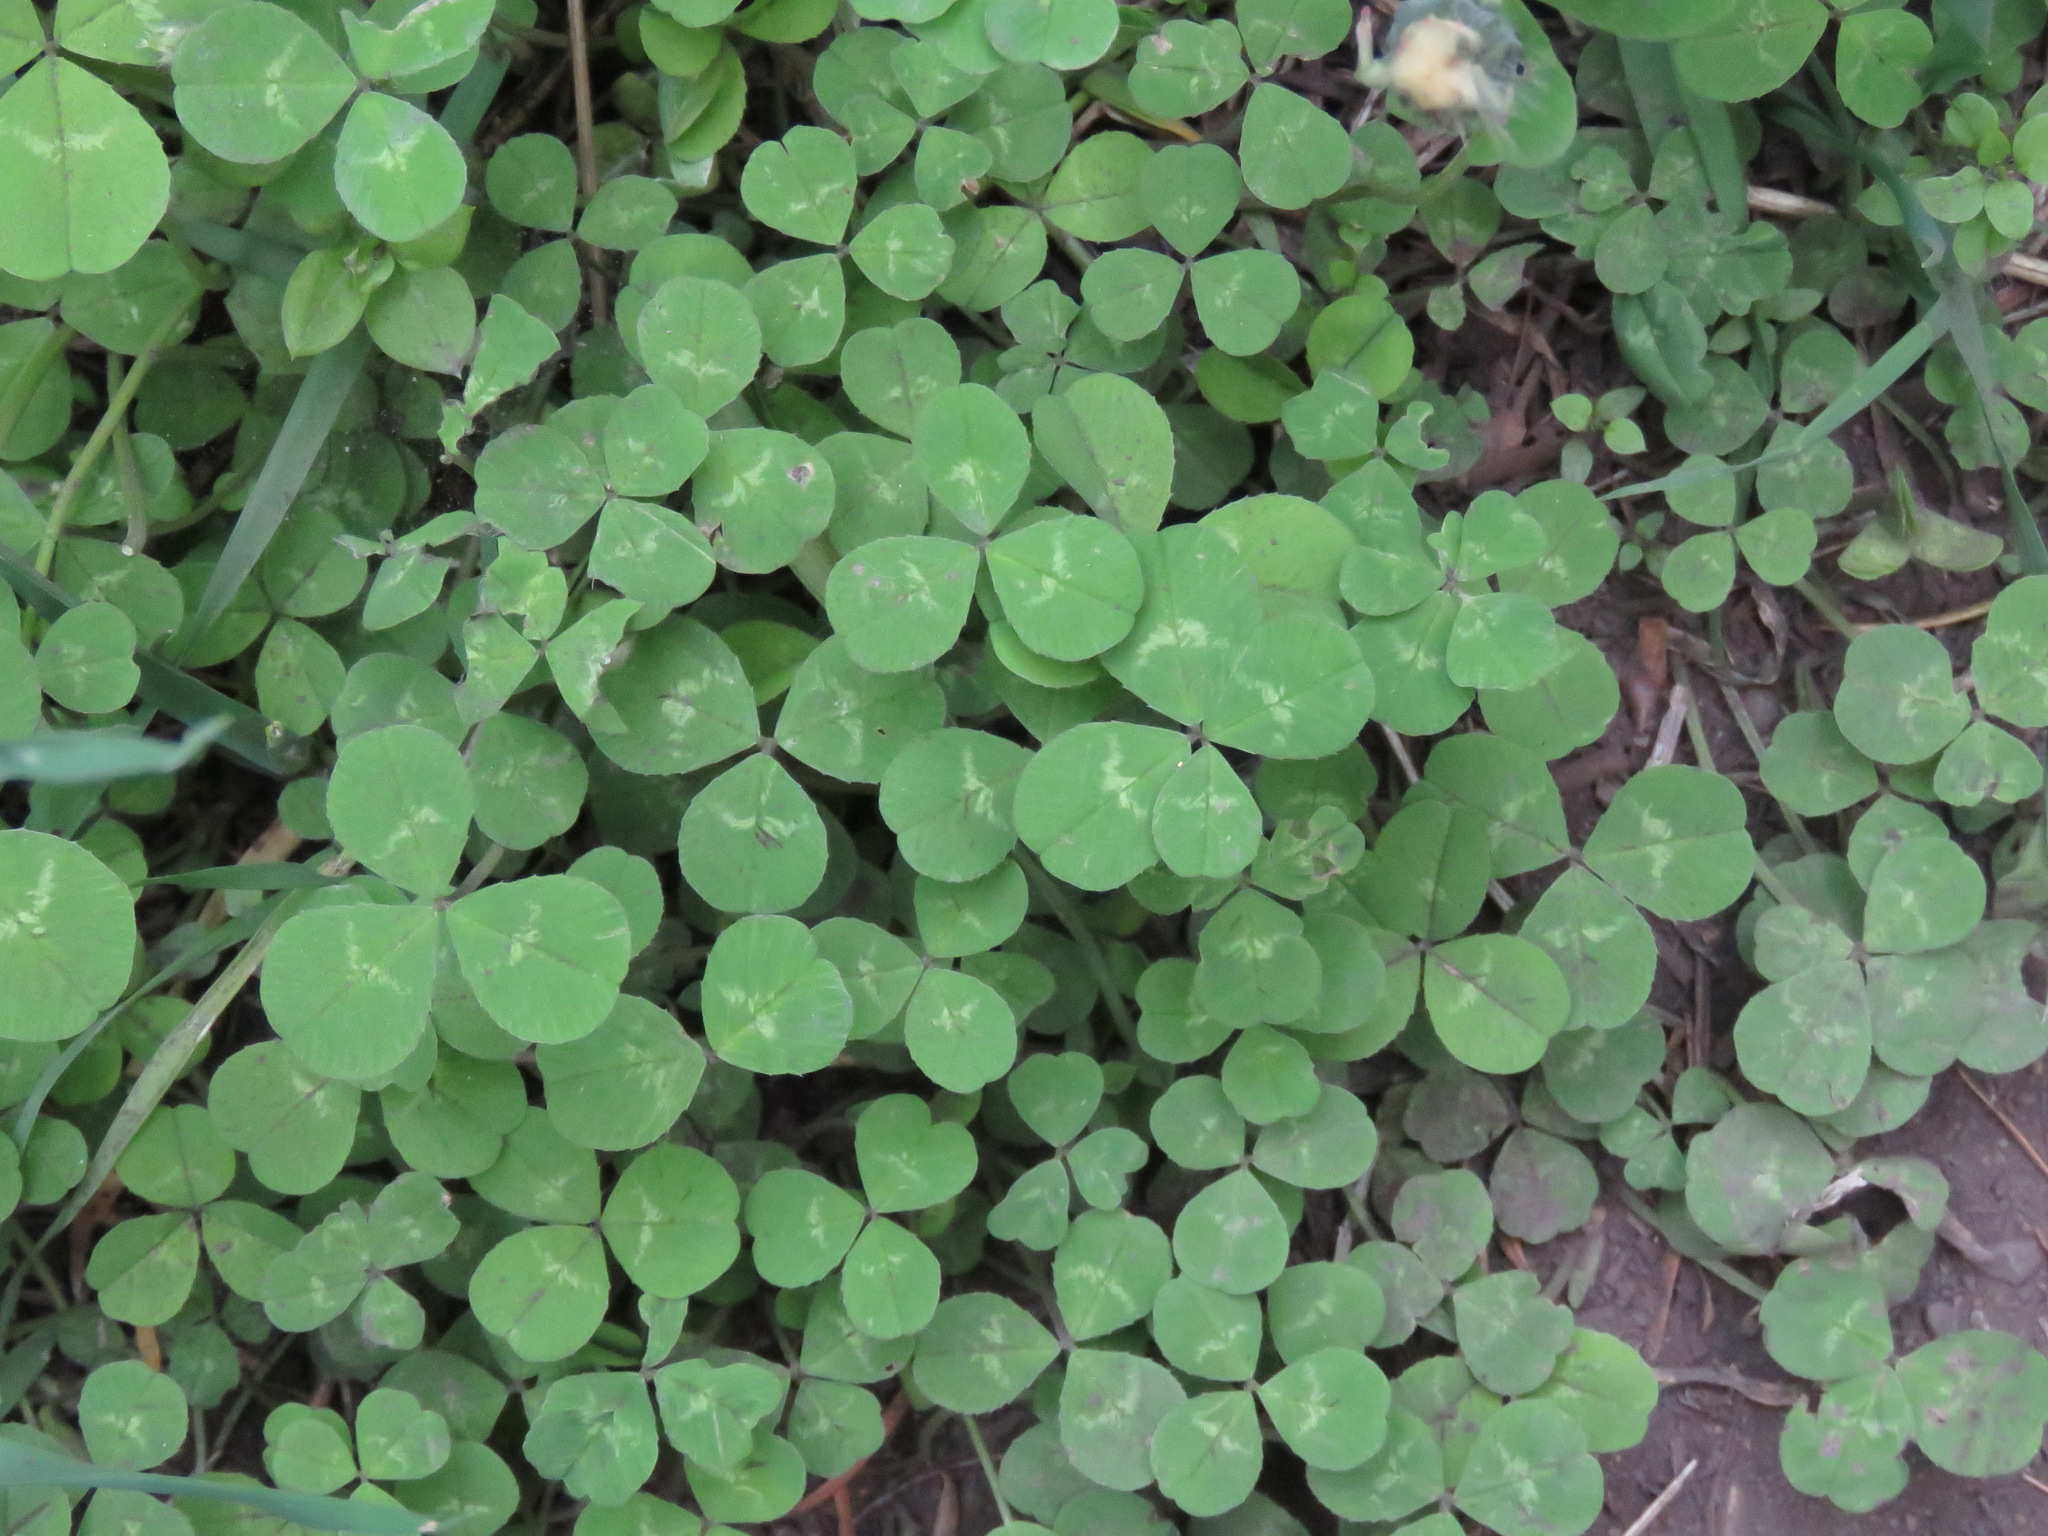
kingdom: Plantae
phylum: Tracheophyta
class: Magnoliopsida
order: Fabales
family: Fabaceae
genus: Trifolium
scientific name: Trifolium repens
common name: White clover
